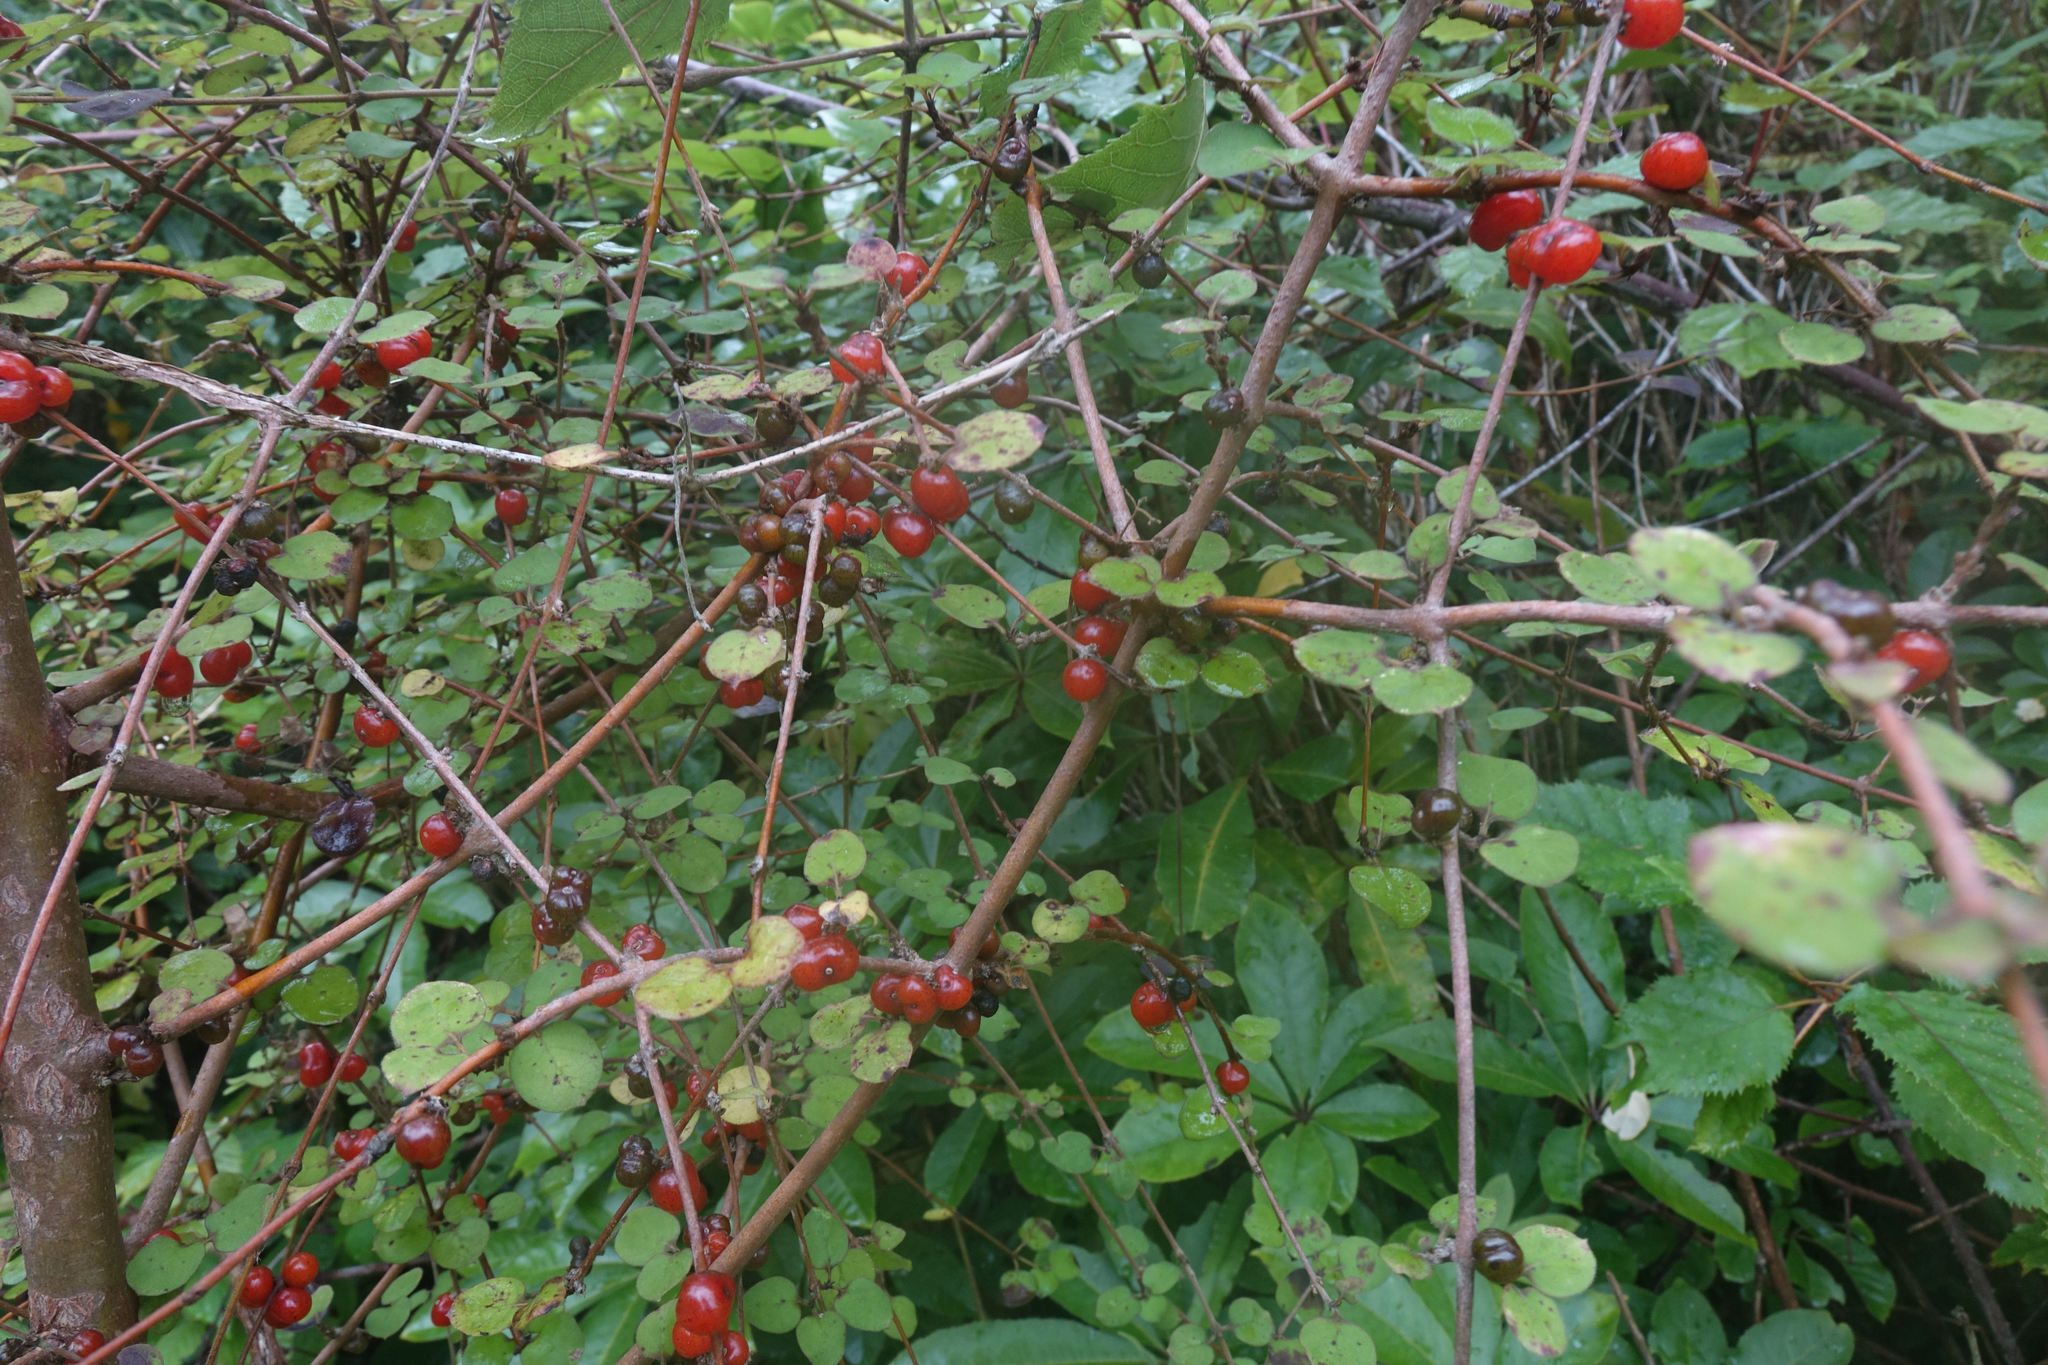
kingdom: Plantae
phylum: Tracheophyta
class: Magnoliopsida
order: Gentianales
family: Rubiaceae
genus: Coprosma
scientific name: Coprosma rotundifolia
